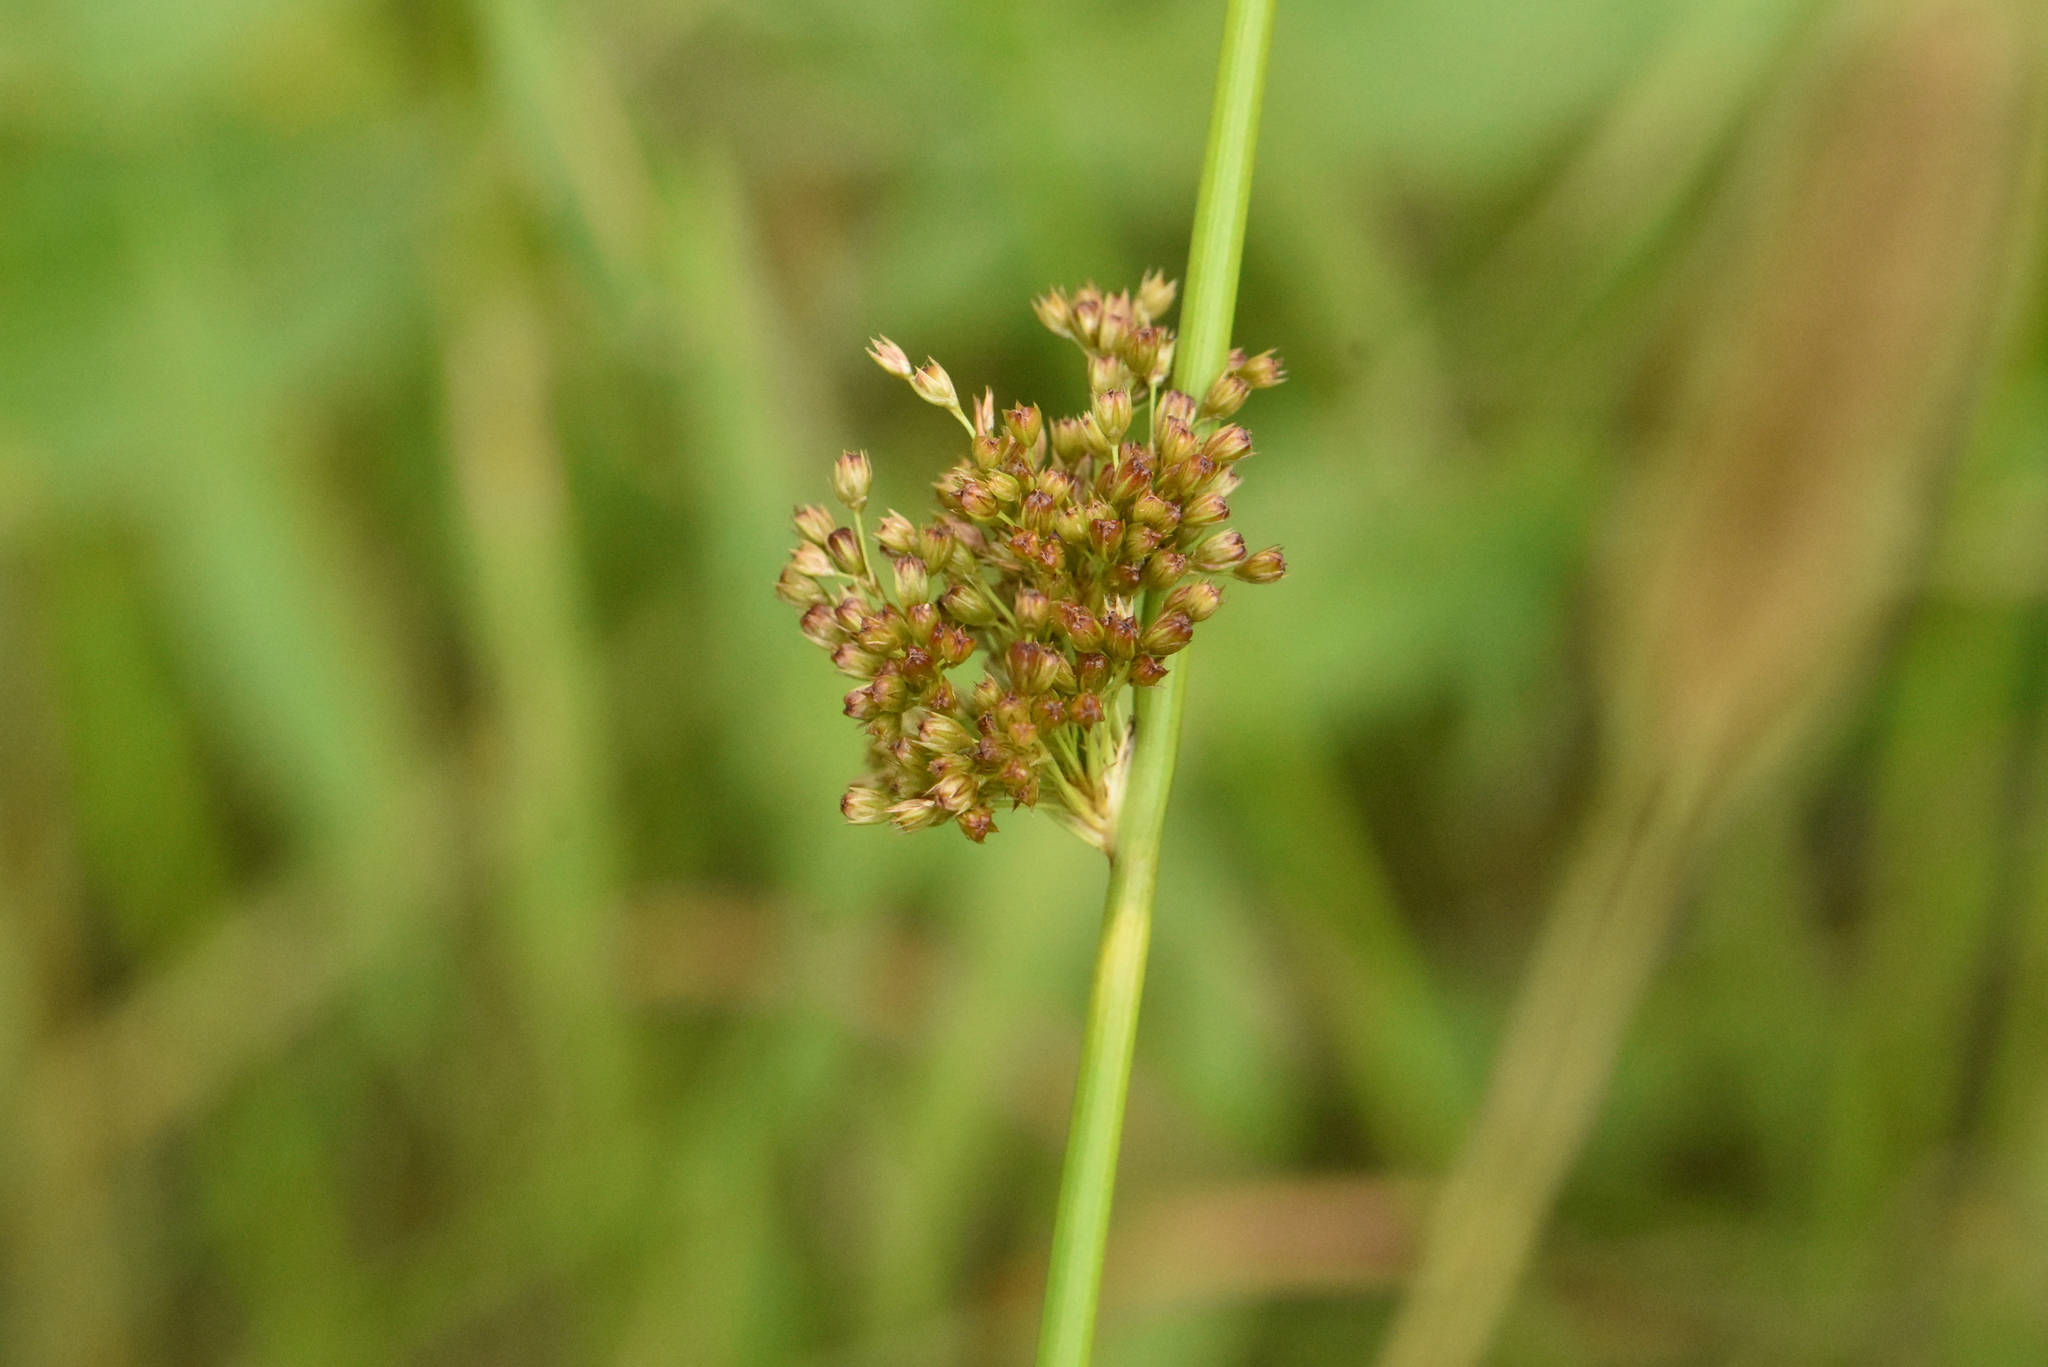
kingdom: Plantae
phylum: Tracheophyta
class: Liliopsida
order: Poales
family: Juncaceae
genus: Juncus
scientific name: Juncus effusus
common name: Soft rush
